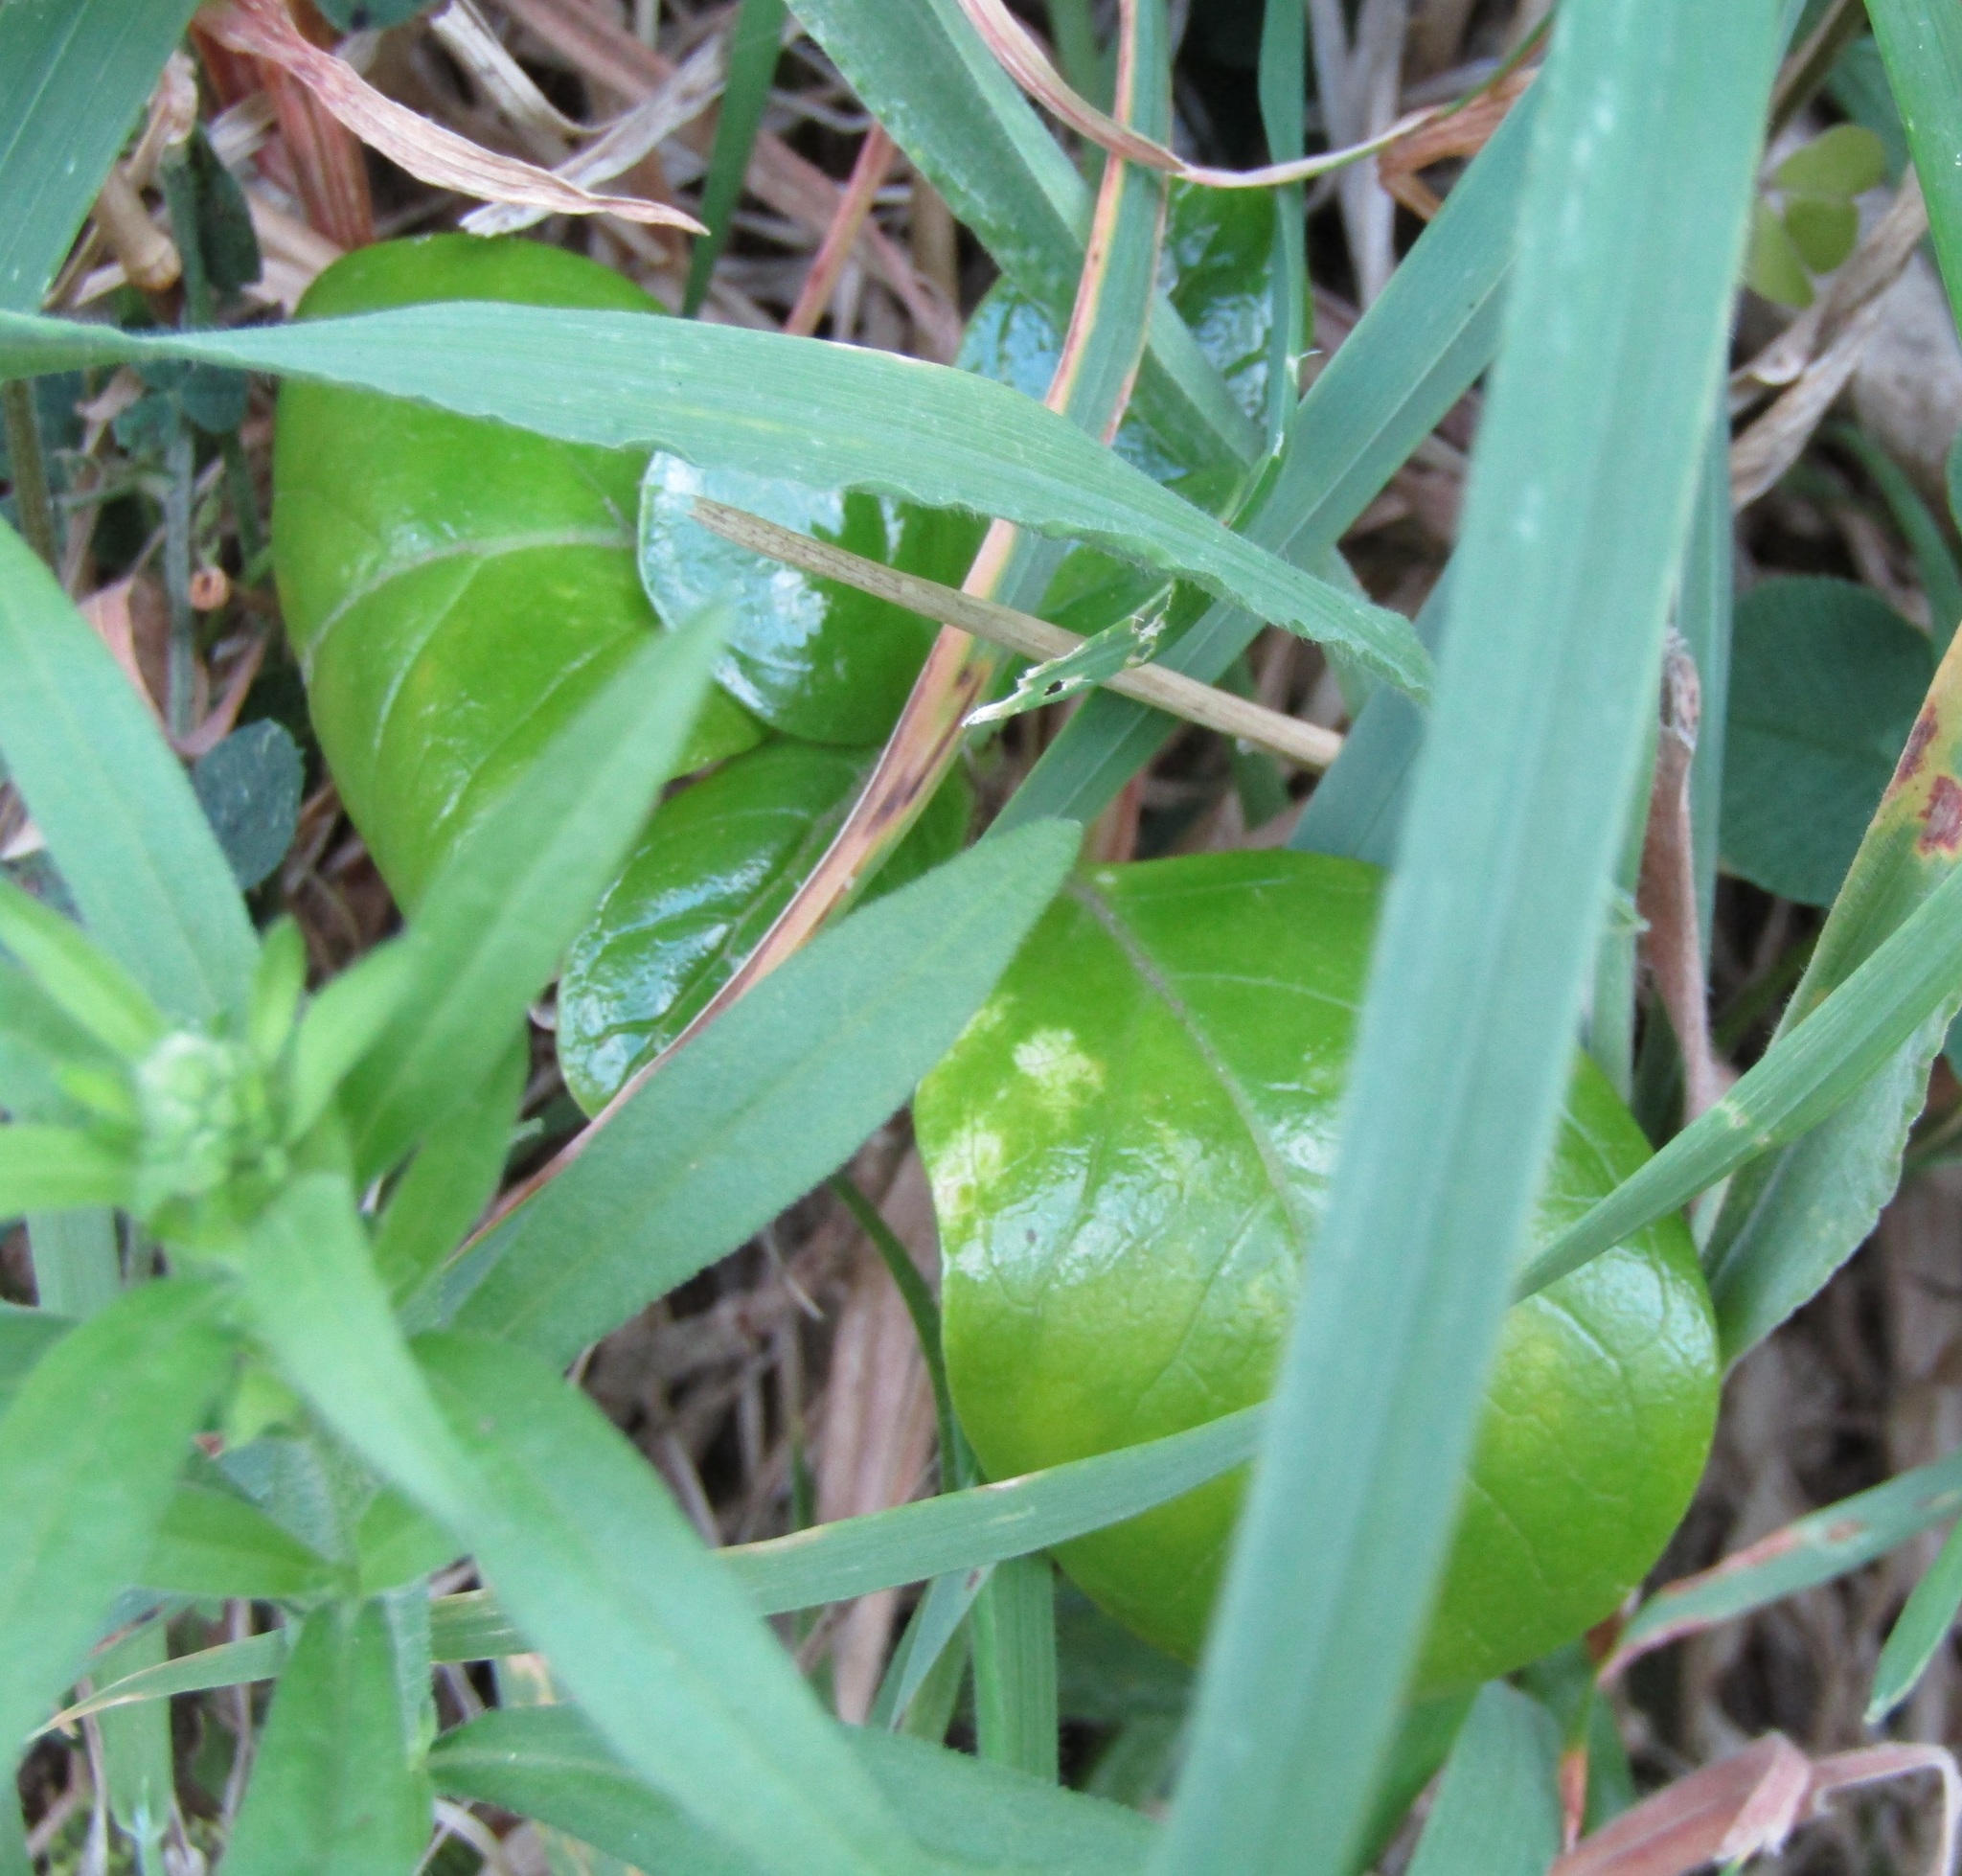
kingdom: Plantae
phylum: Tracheophyta
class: Magnoliopsida
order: Gentianales
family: Rubiaceae
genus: Coprosma
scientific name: Coprosma repens
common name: Tree bedstraw
